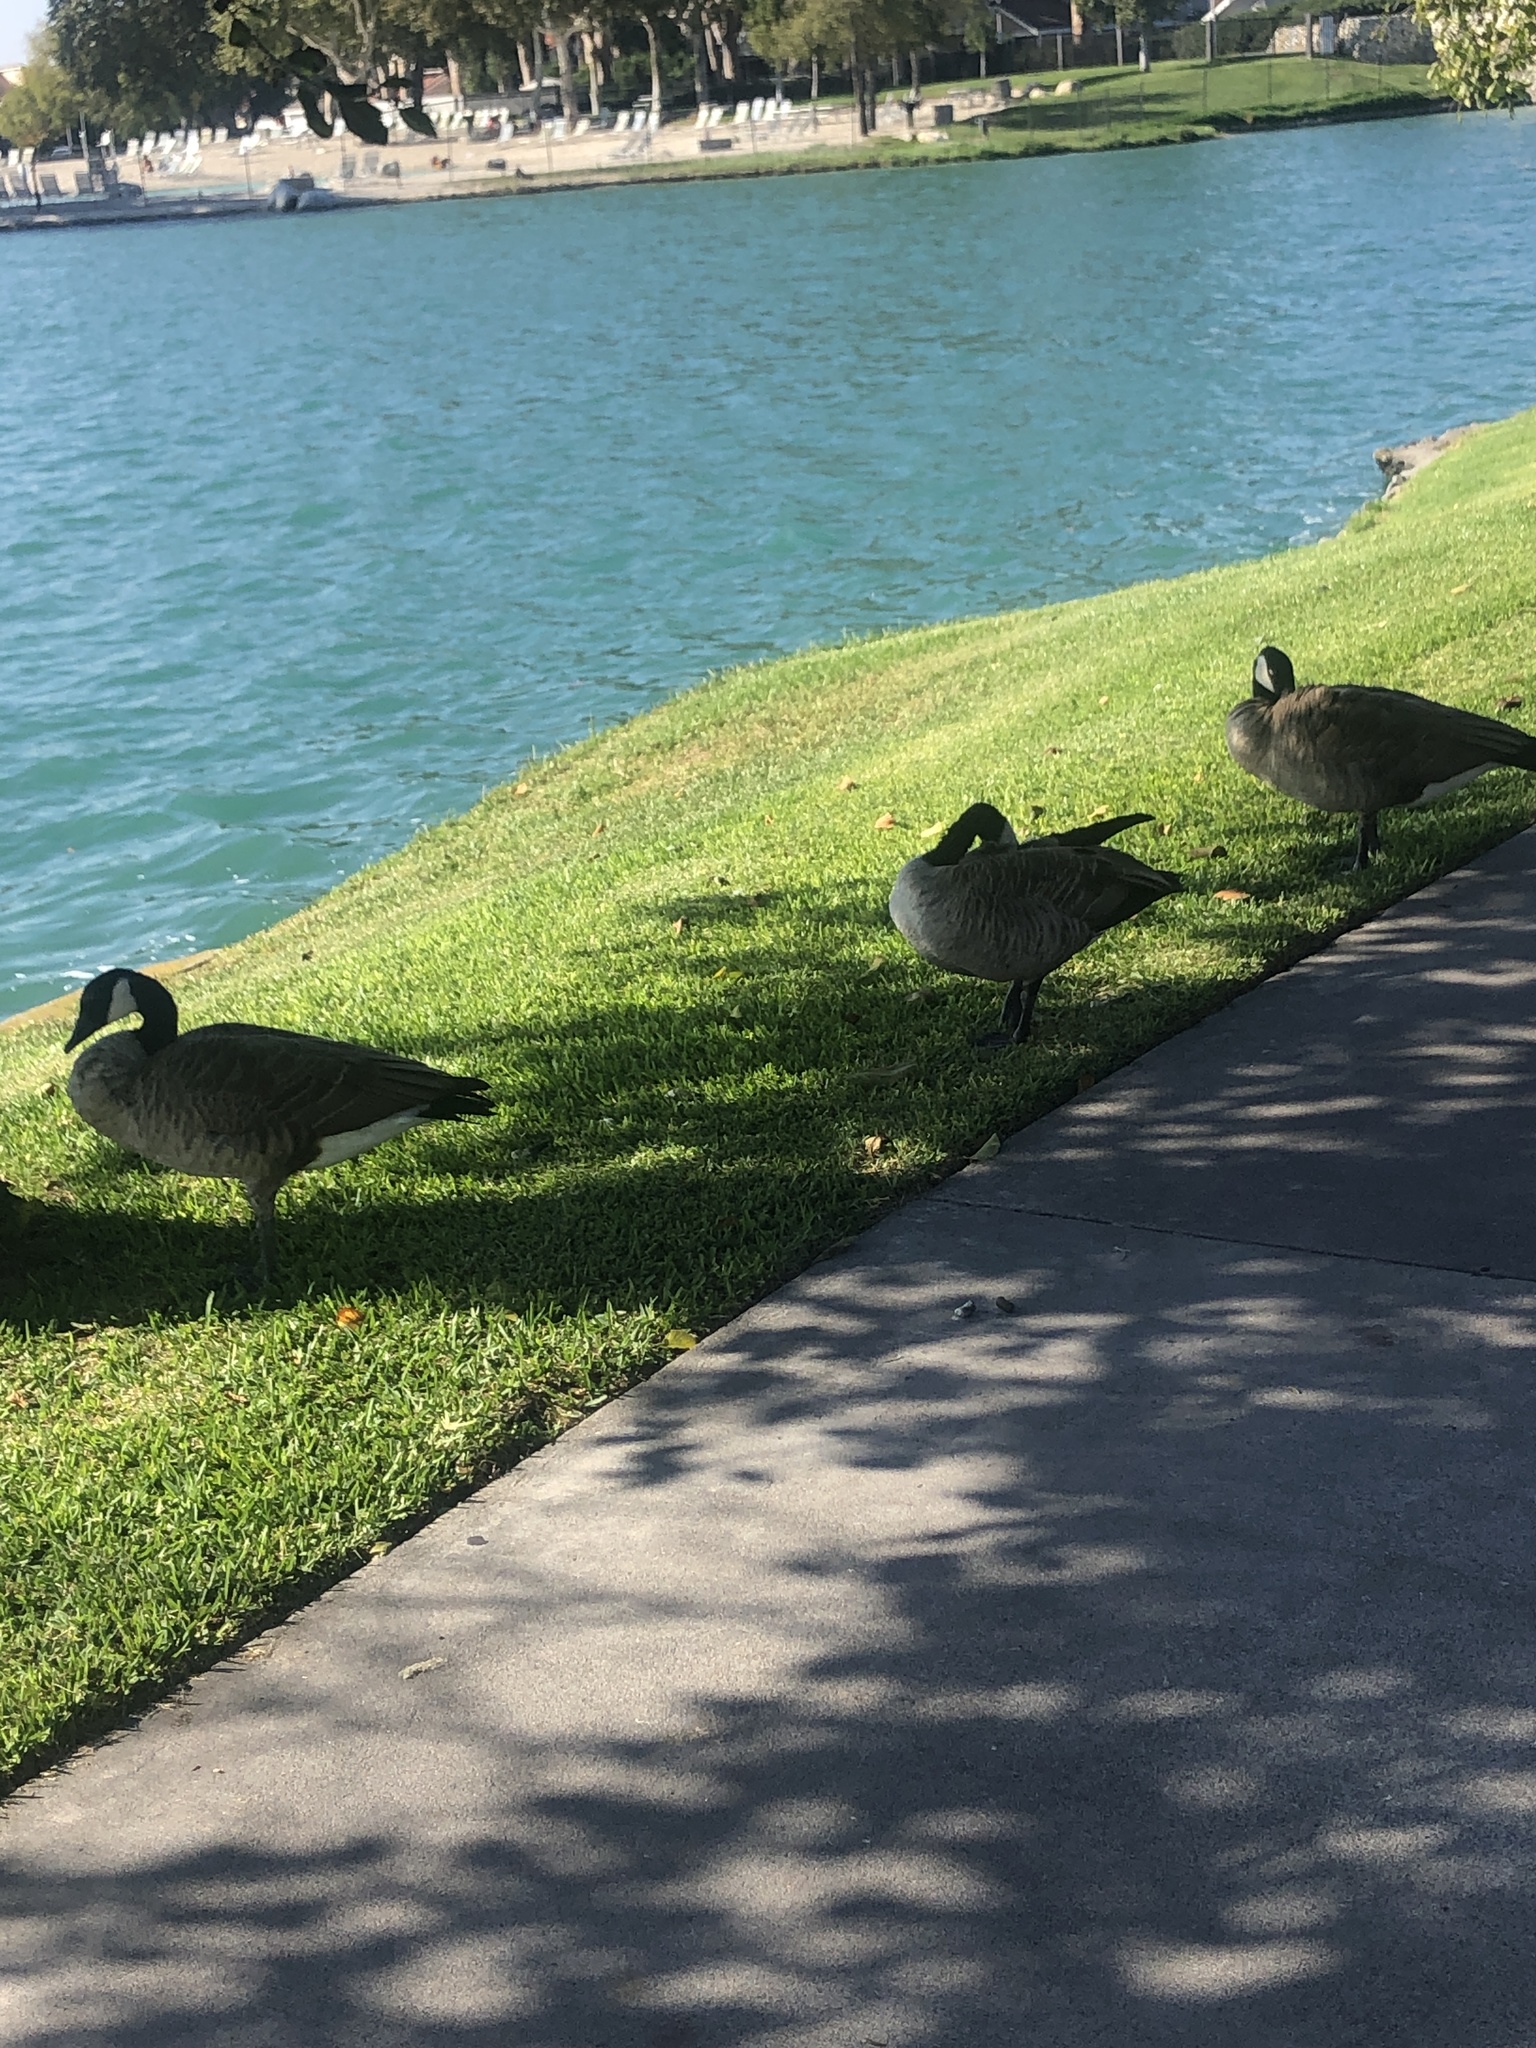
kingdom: Animalia
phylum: Chordata
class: Aves
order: Anseriformes
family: Anatidae
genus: Branta
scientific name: Branta canadensis
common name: Canada goose
